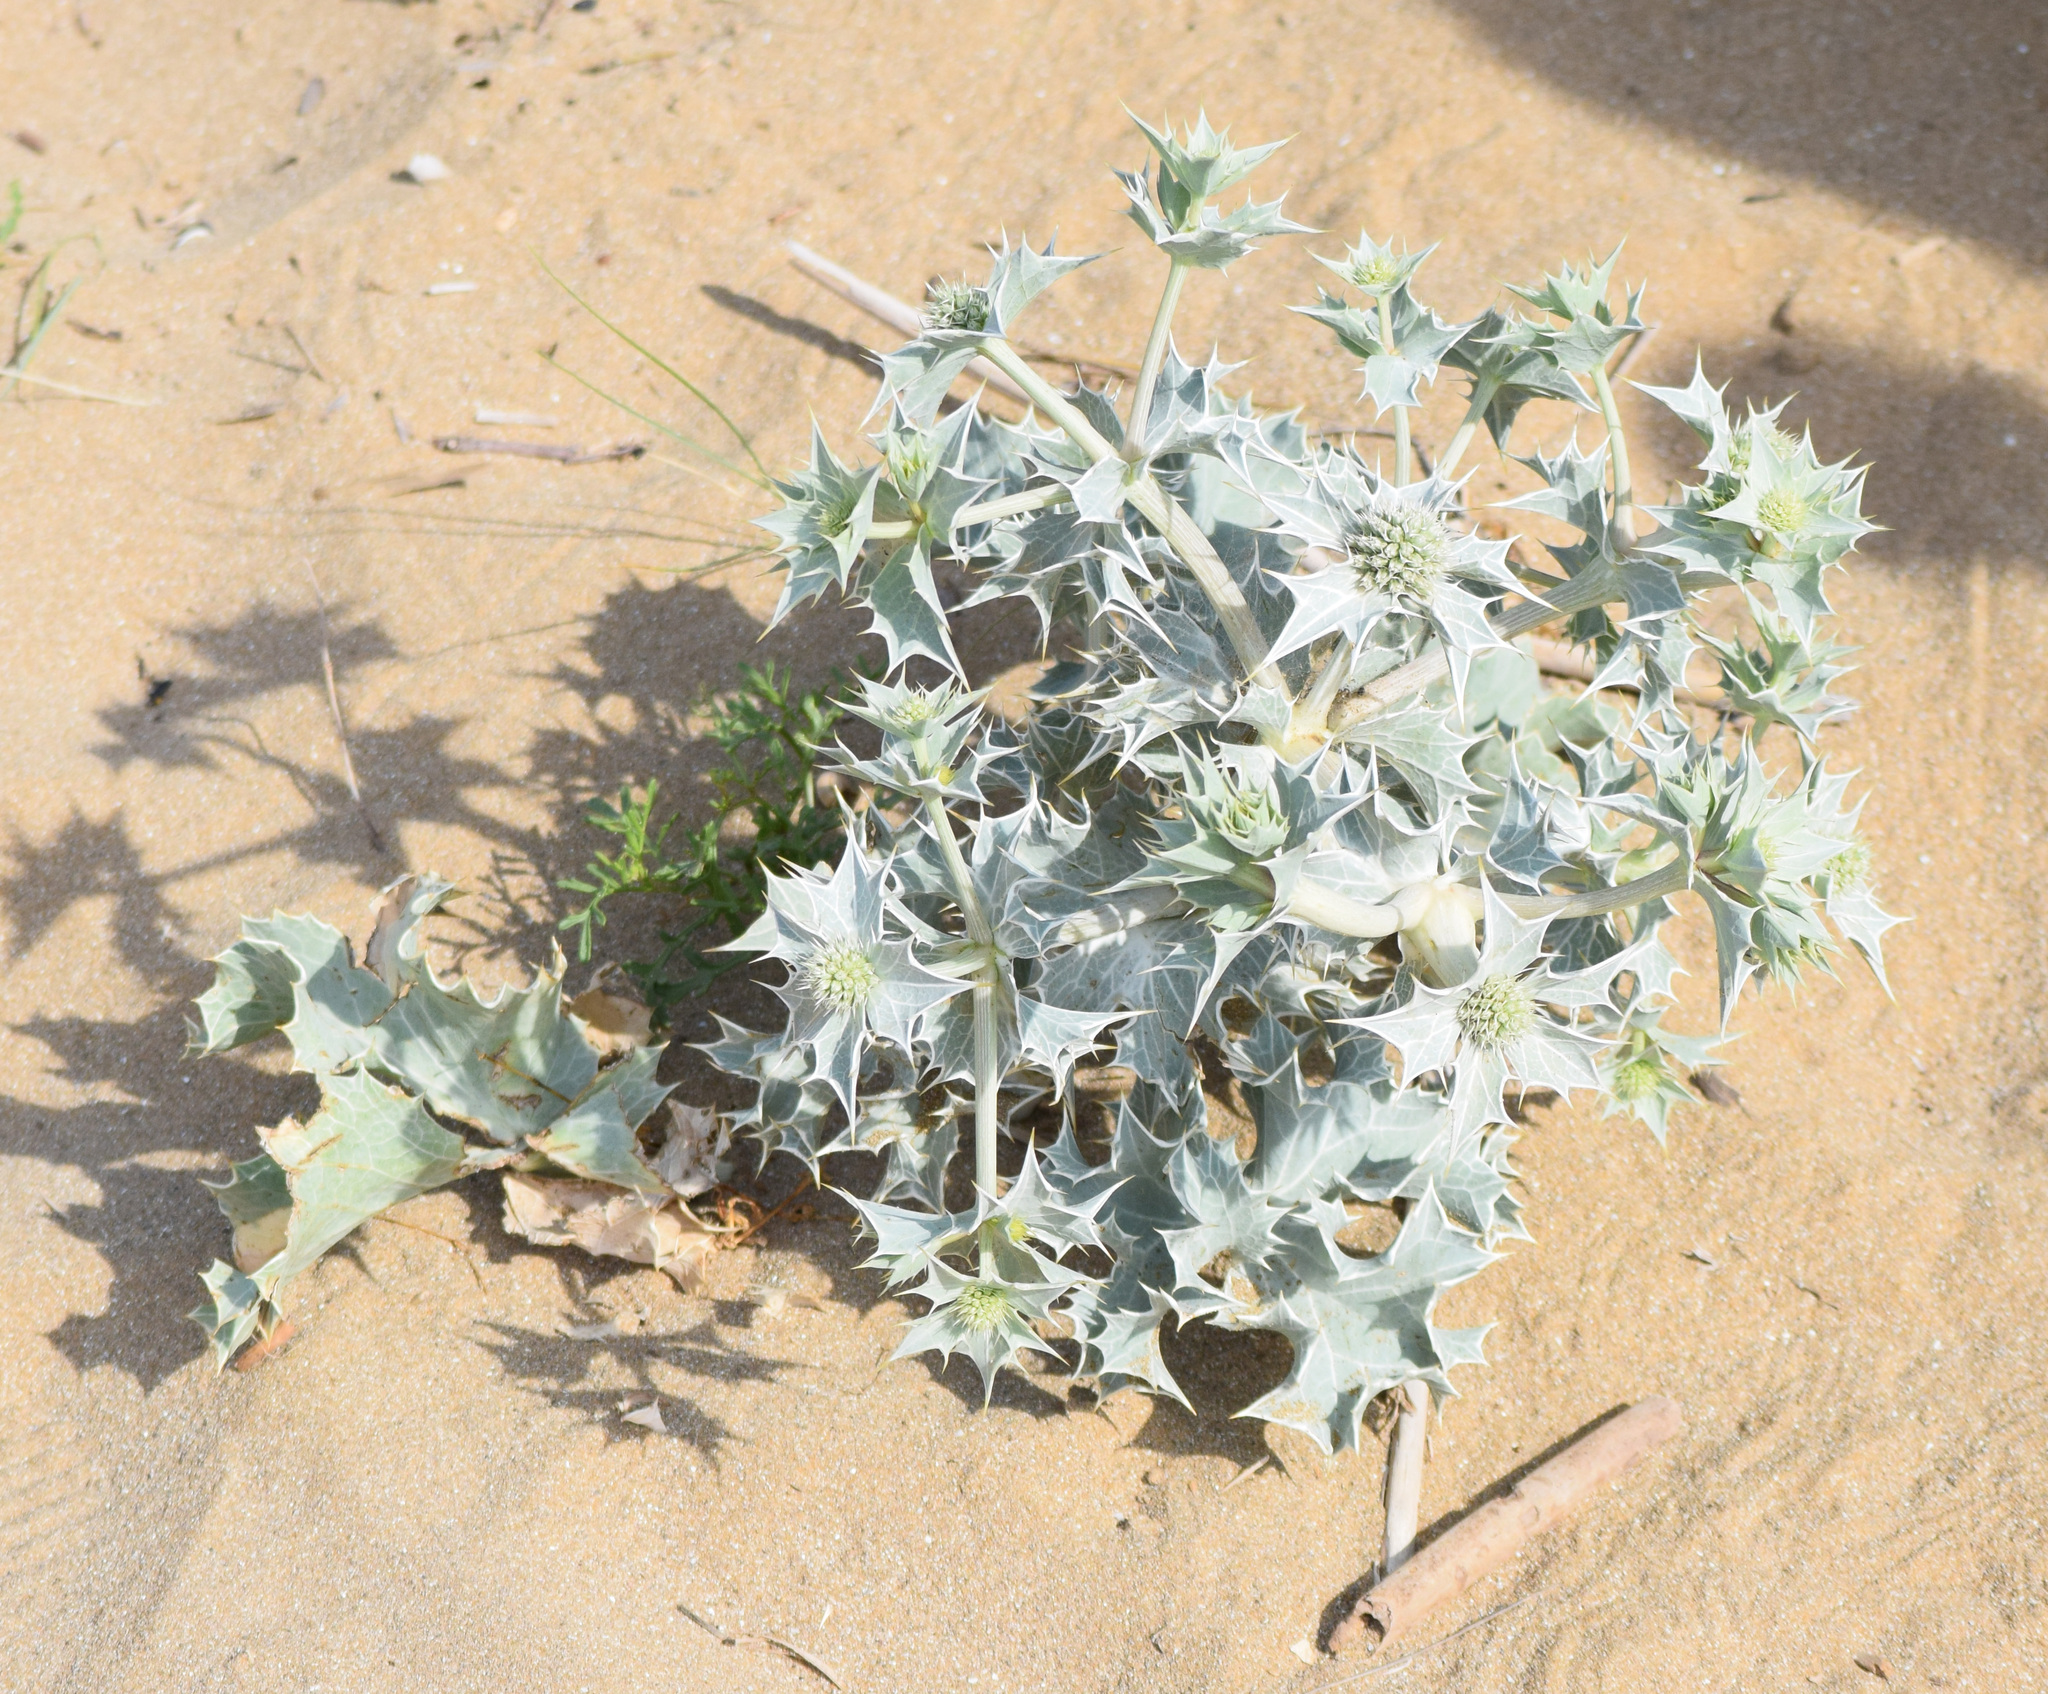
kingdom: Plantae
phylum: Tracheophyta
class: Magnoliopsida
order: Apiales
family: Apiaceae
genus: Eryngium
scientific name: Eryngium maritimum
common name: Sea-holly
